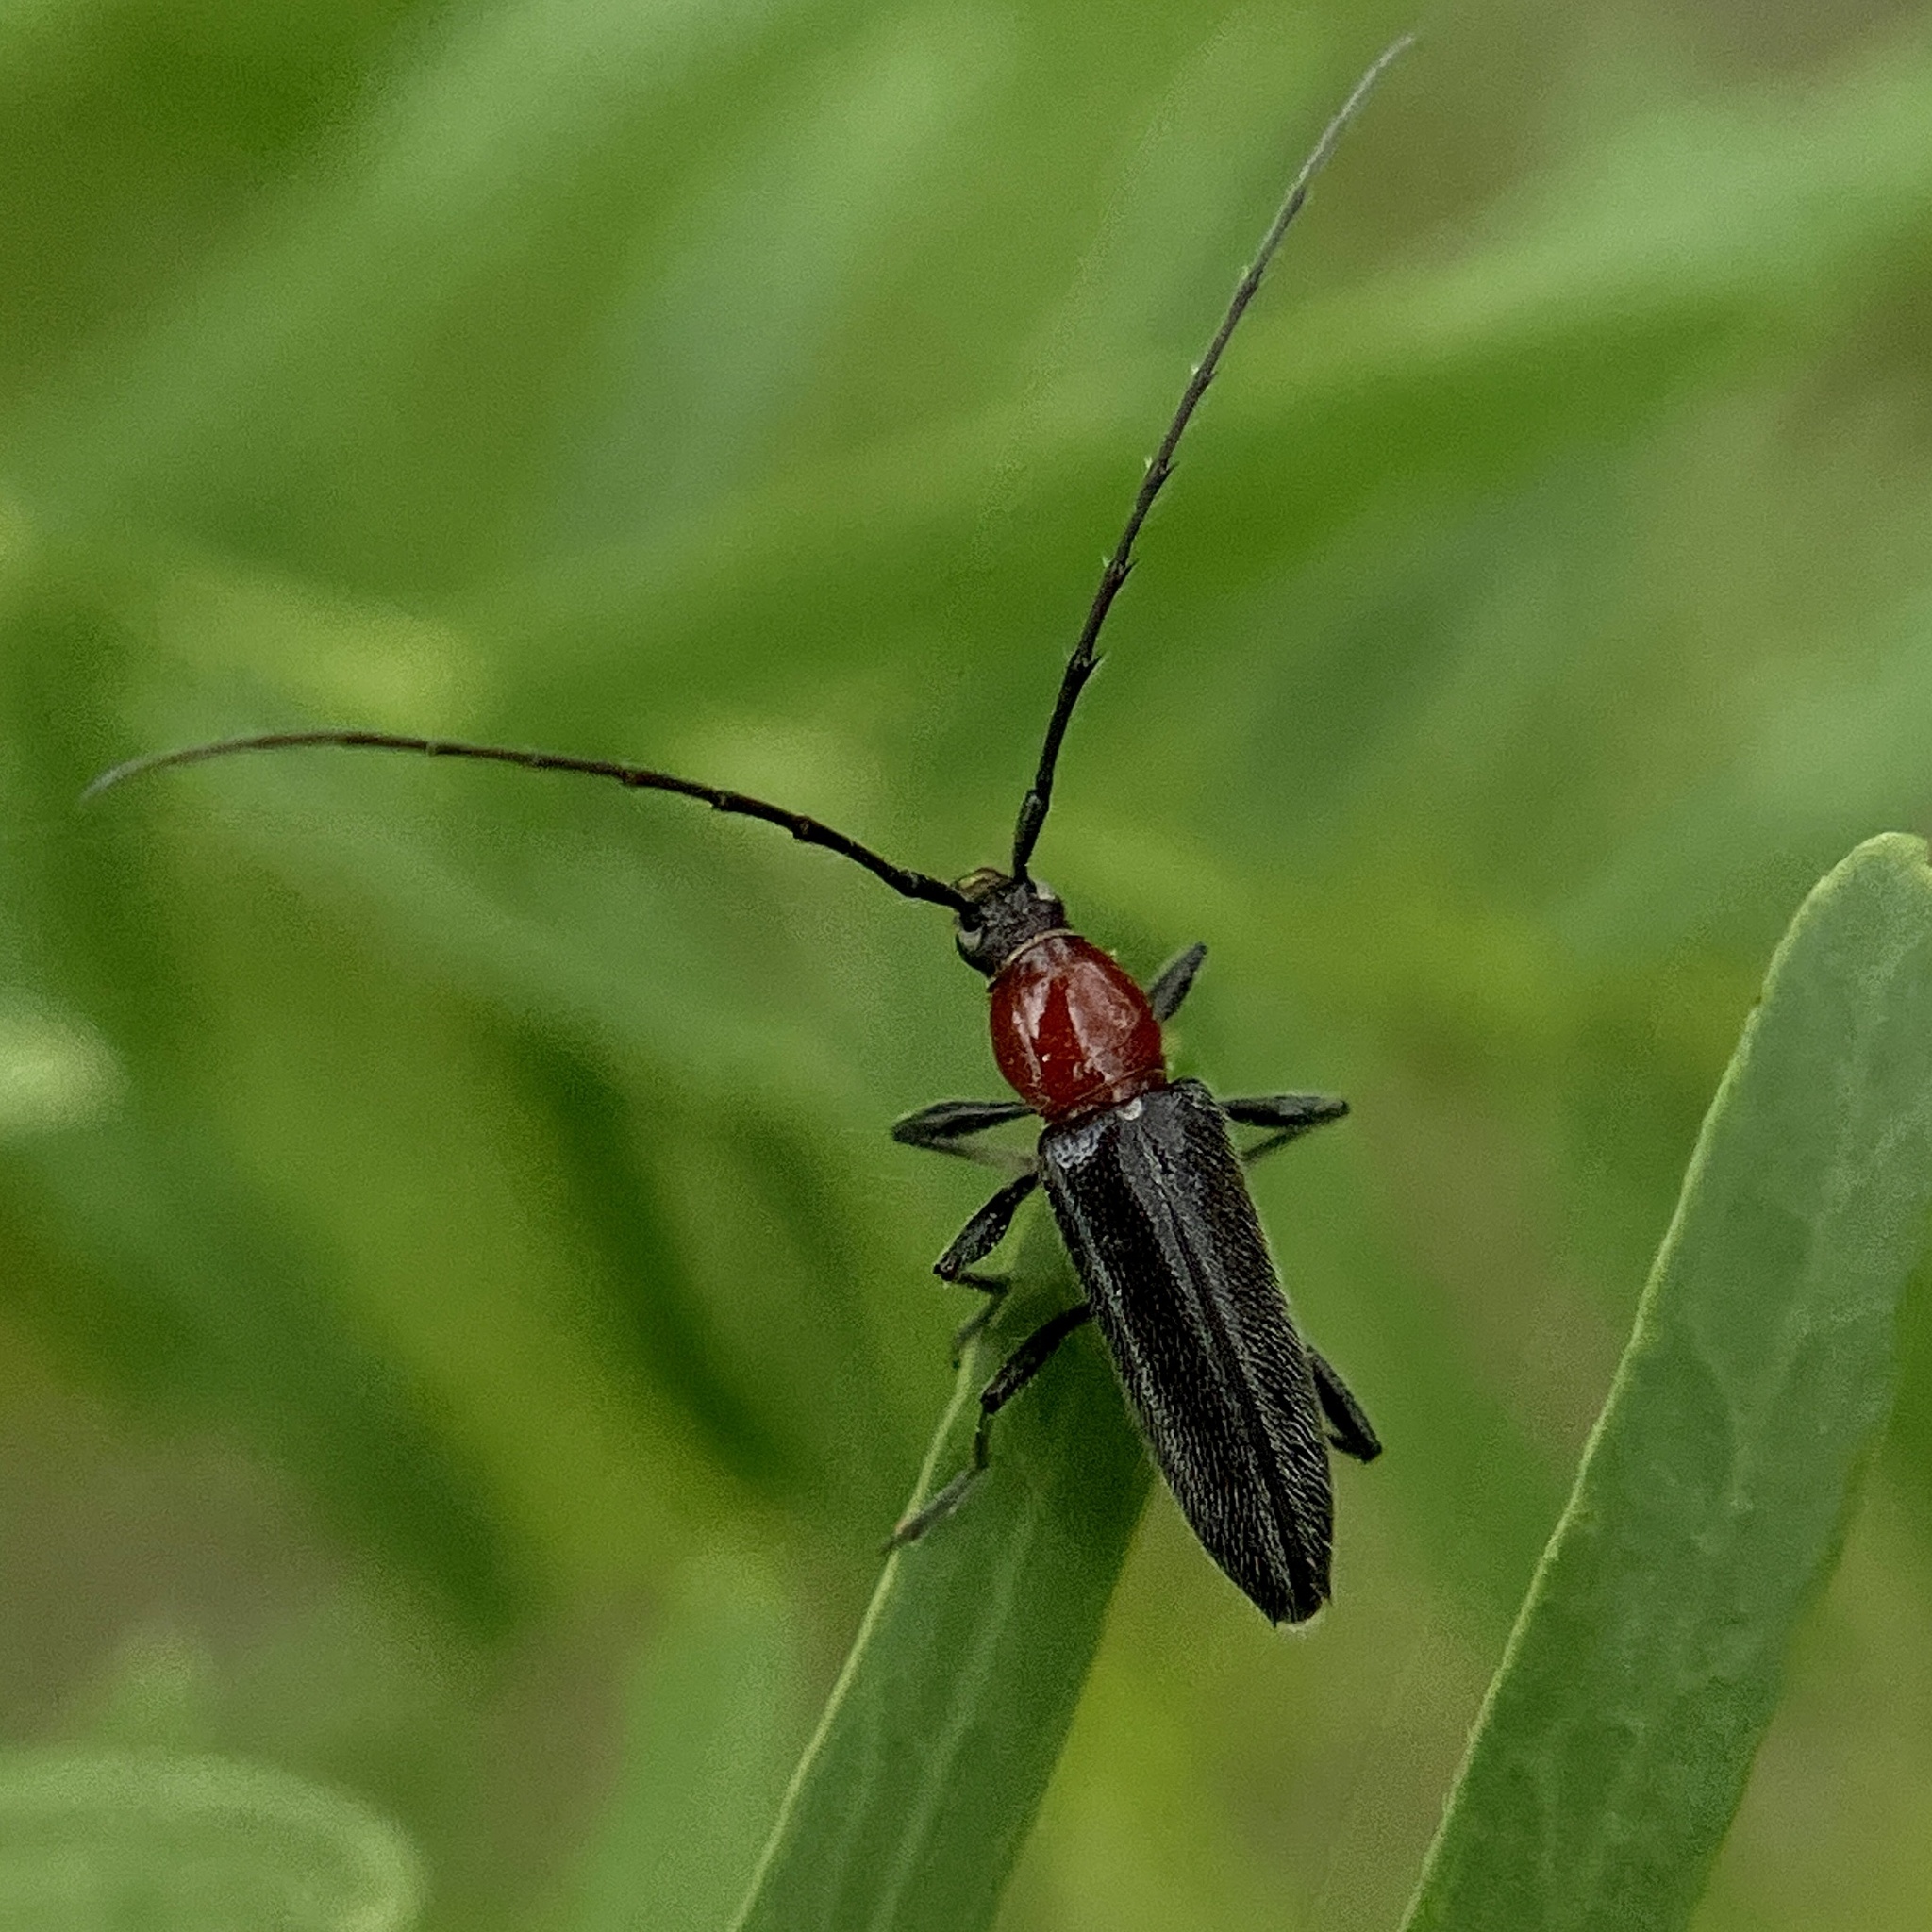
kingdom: Animalia
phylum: Arthropoda
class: Insecta
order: Coleoptera
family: Cerambycidae
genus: Stenosphenus
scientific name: Stenosphenus dolosus
